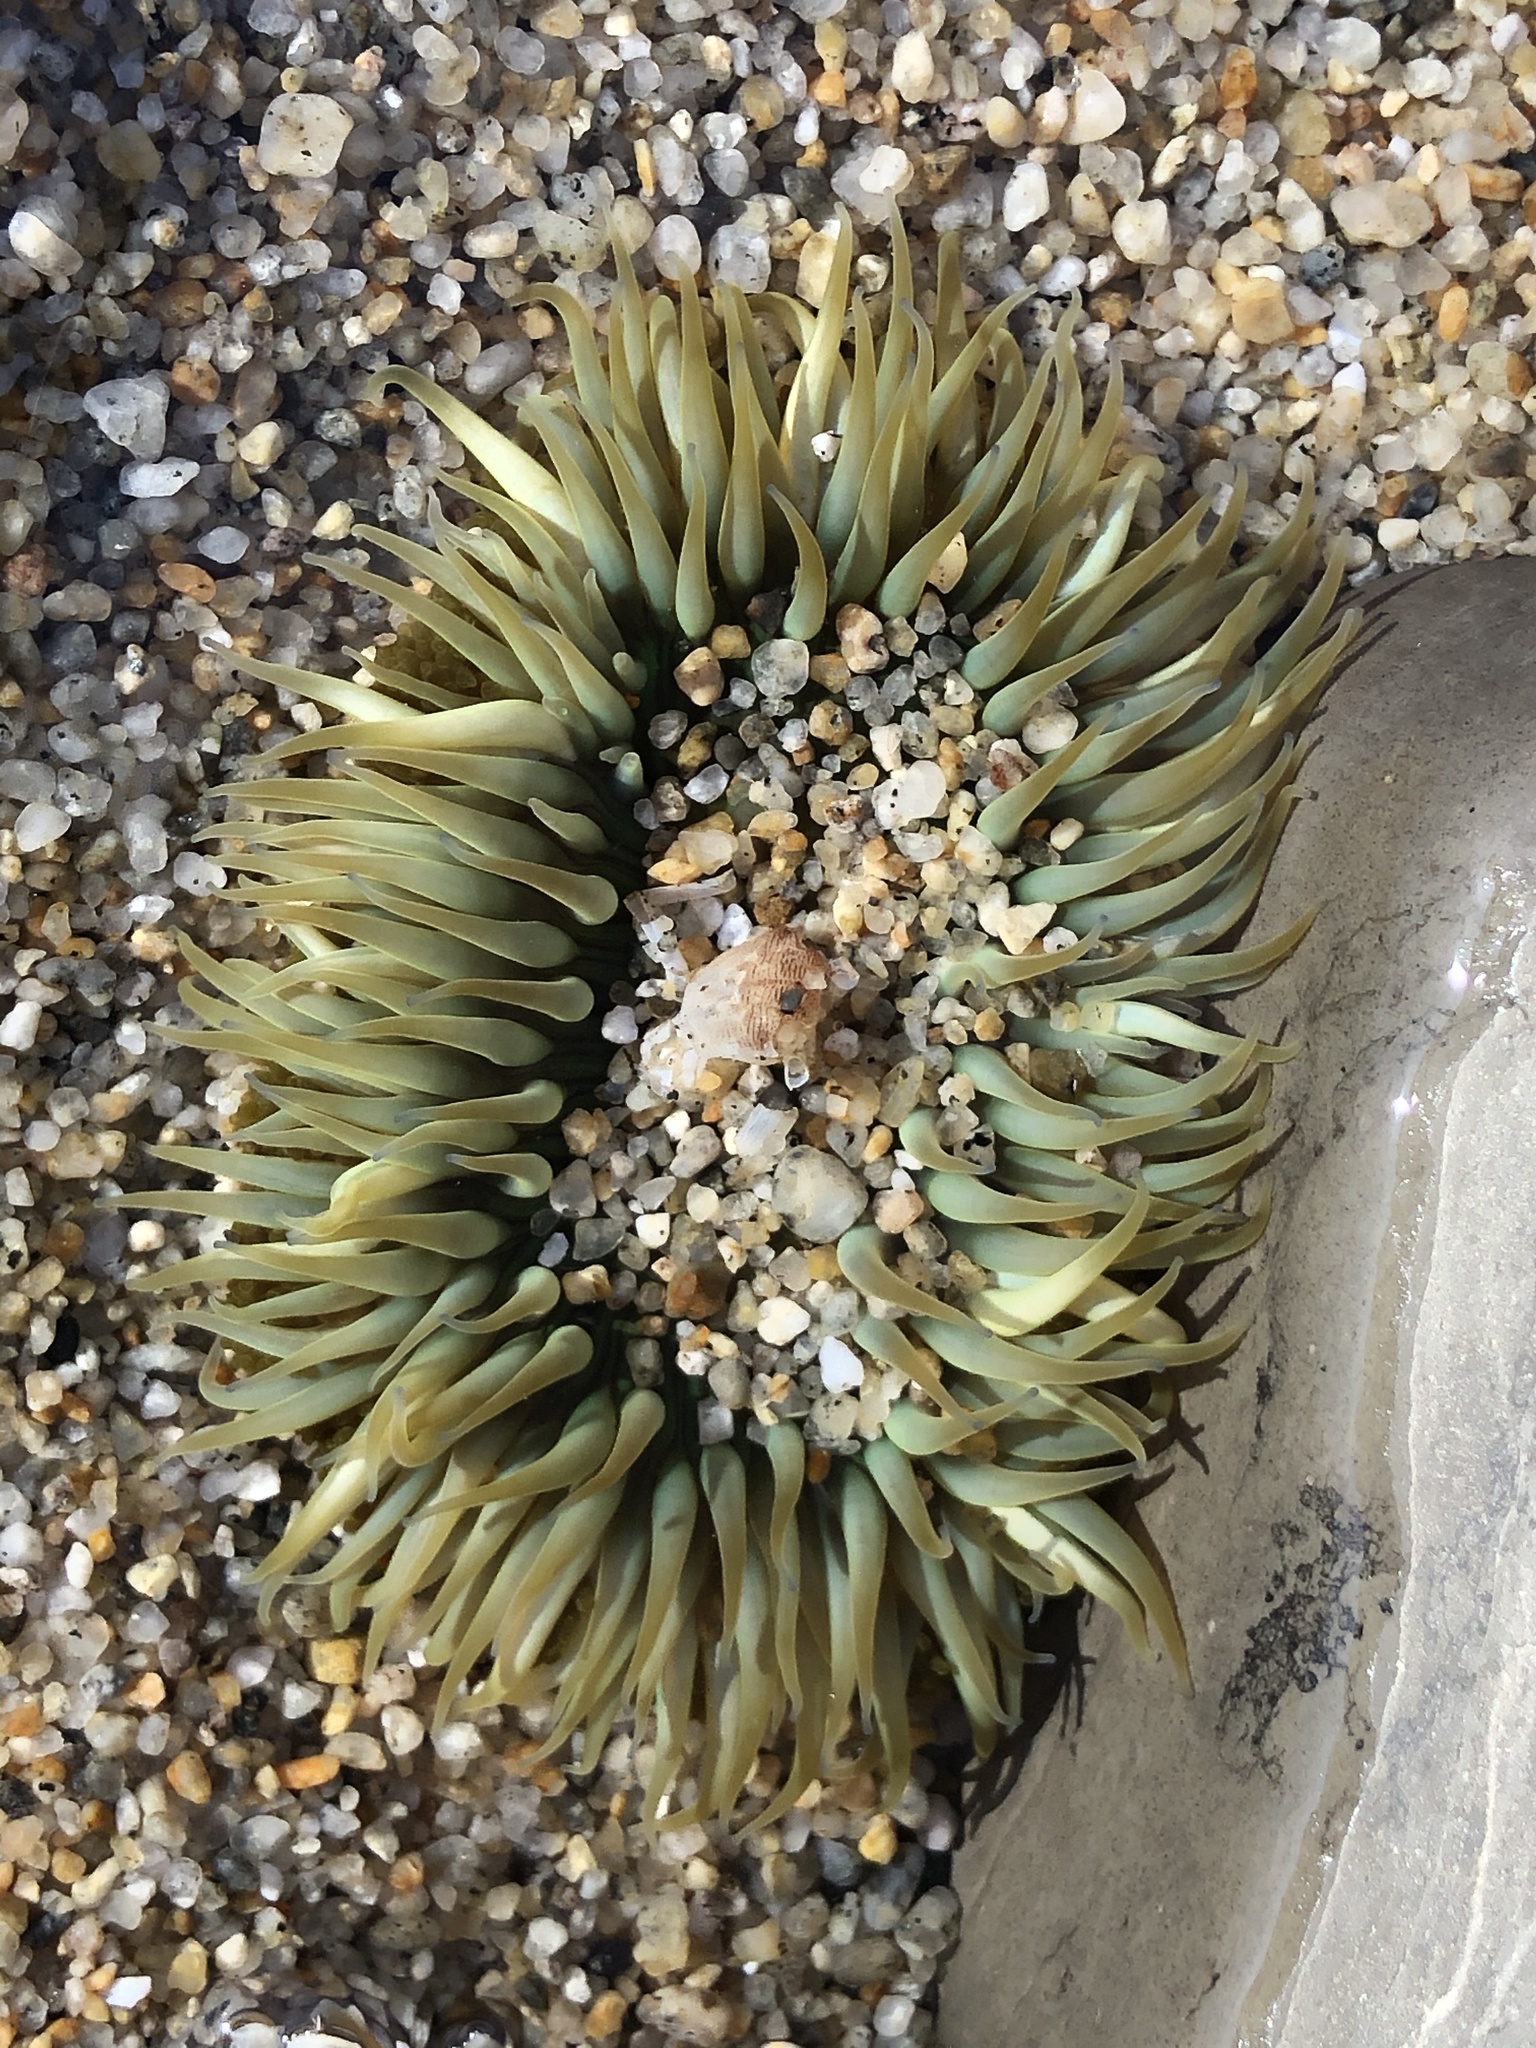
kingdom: Animalia
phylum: Cnidaria
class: Anthozoa
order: Actiniaria
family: Actiniidae
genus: Anthopleura
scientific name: Anthopleura sola
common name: Sun anemone
